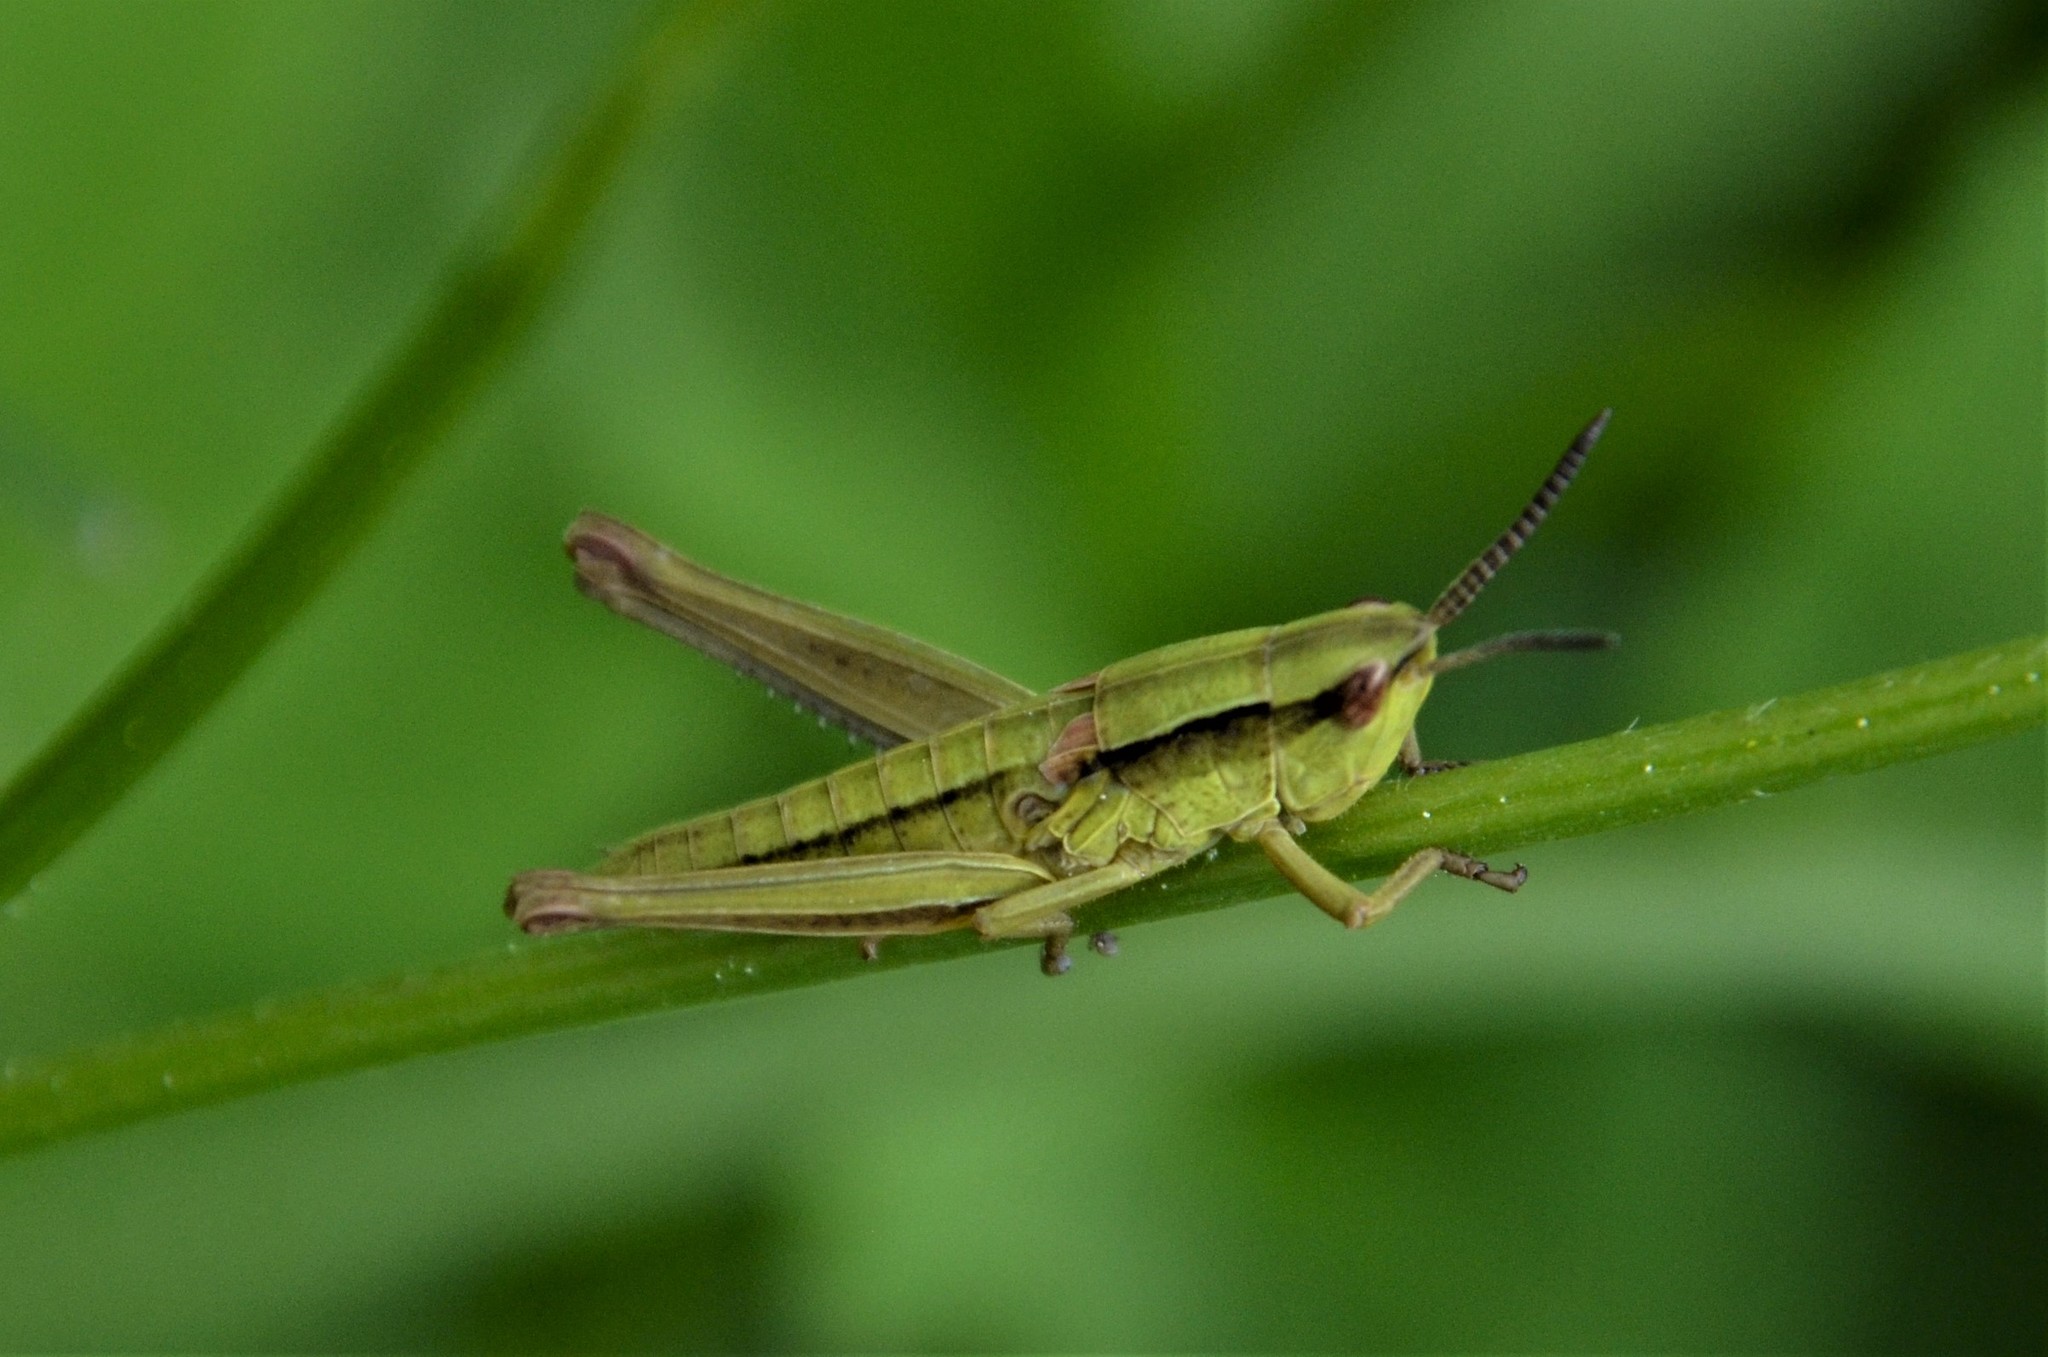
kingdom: Animalia
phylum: Arthropoda
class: Insecta
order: Orthoptera
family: Acrididae
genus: Euthystira
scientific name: Euthystira brachyptera
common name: Small gold grasshopper
